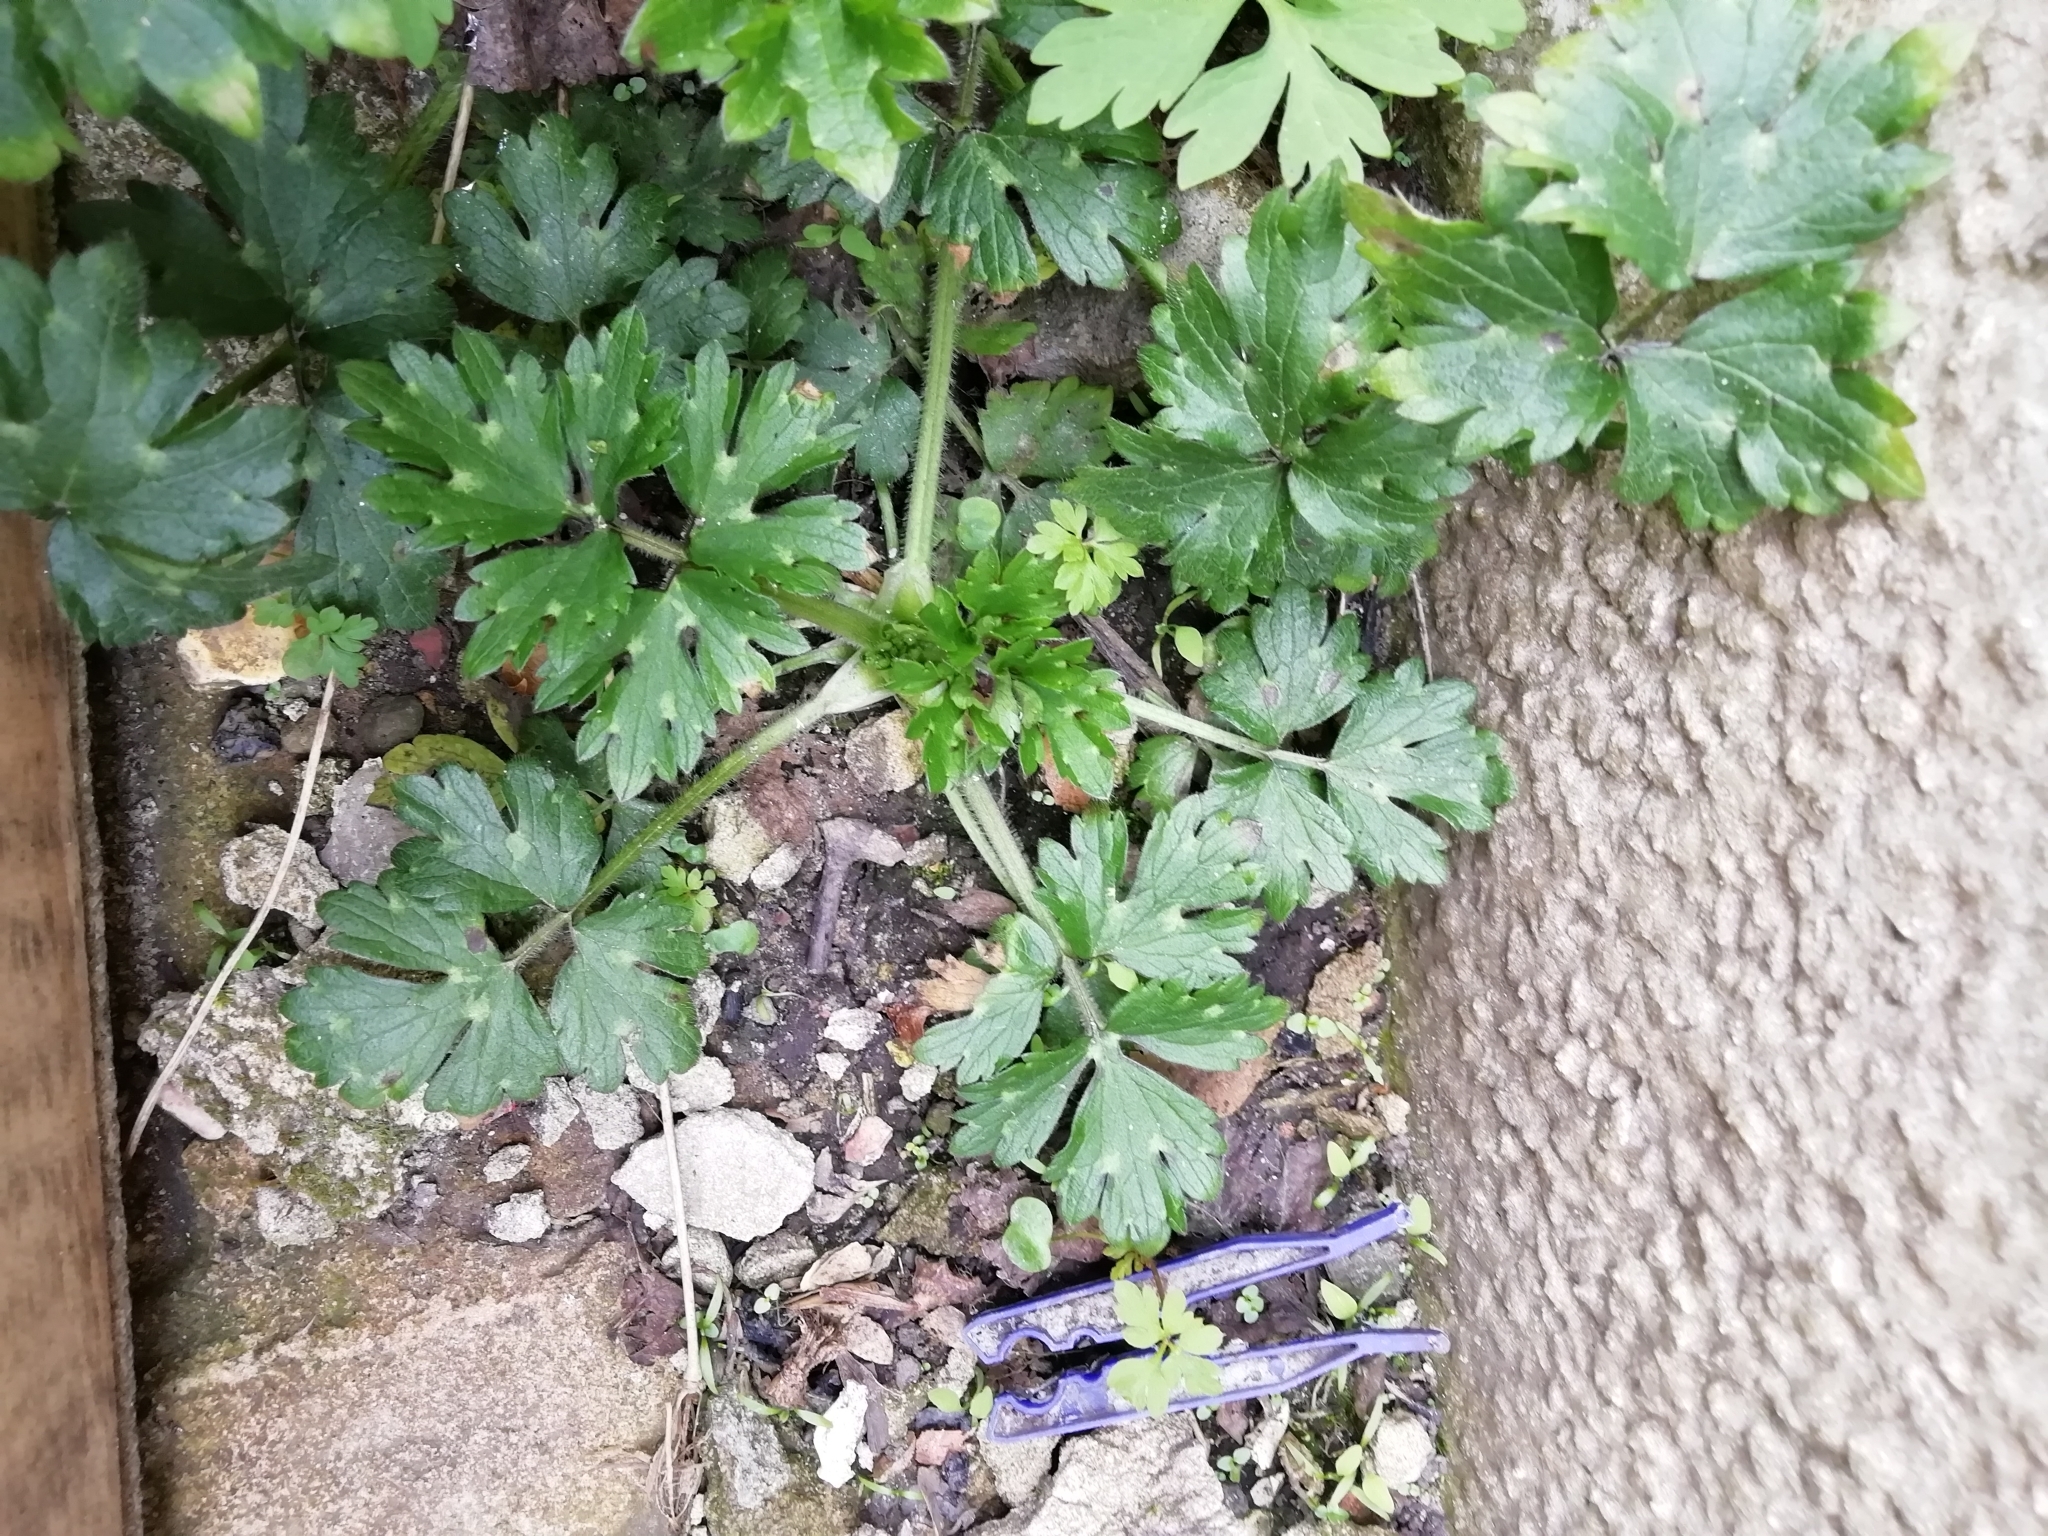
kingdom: Plantae
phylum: Tracheophyta
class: Magnoliopsida
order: Ranunculales
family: Ranunculaceae
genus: Ranunculus
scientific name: Ranunculus repens
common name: Creeping buttercup
